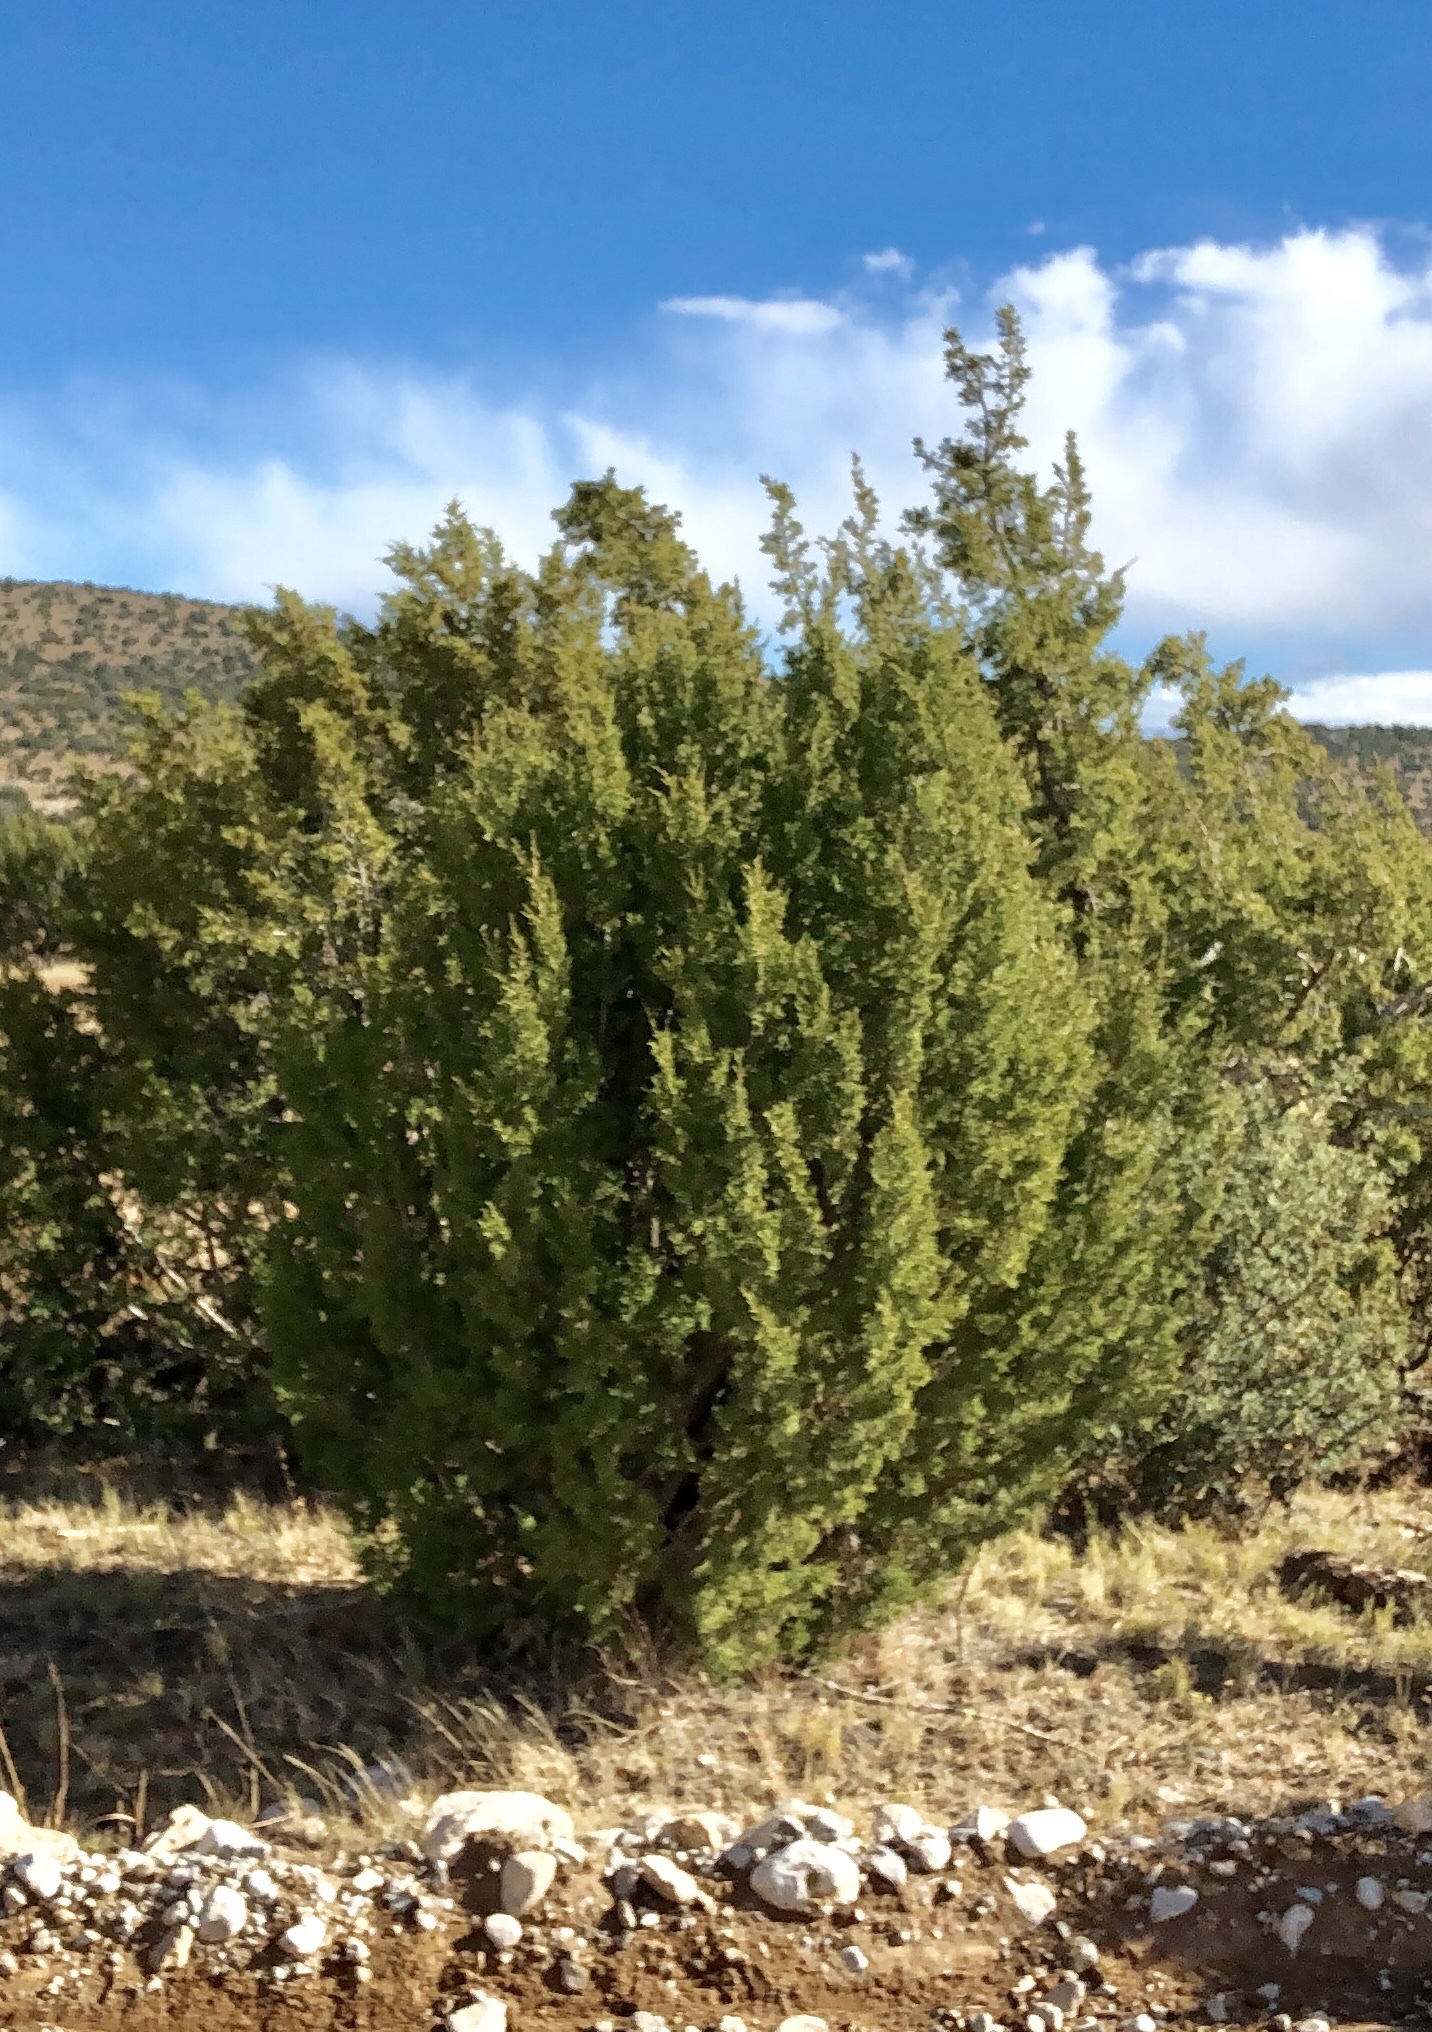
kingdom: Plantae
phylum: Tracheophyta
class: Pinopsida
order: Pinales
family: Cupressaceae
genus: Juniperus
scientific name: Juniperus monosperma
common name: One-seed juniper
